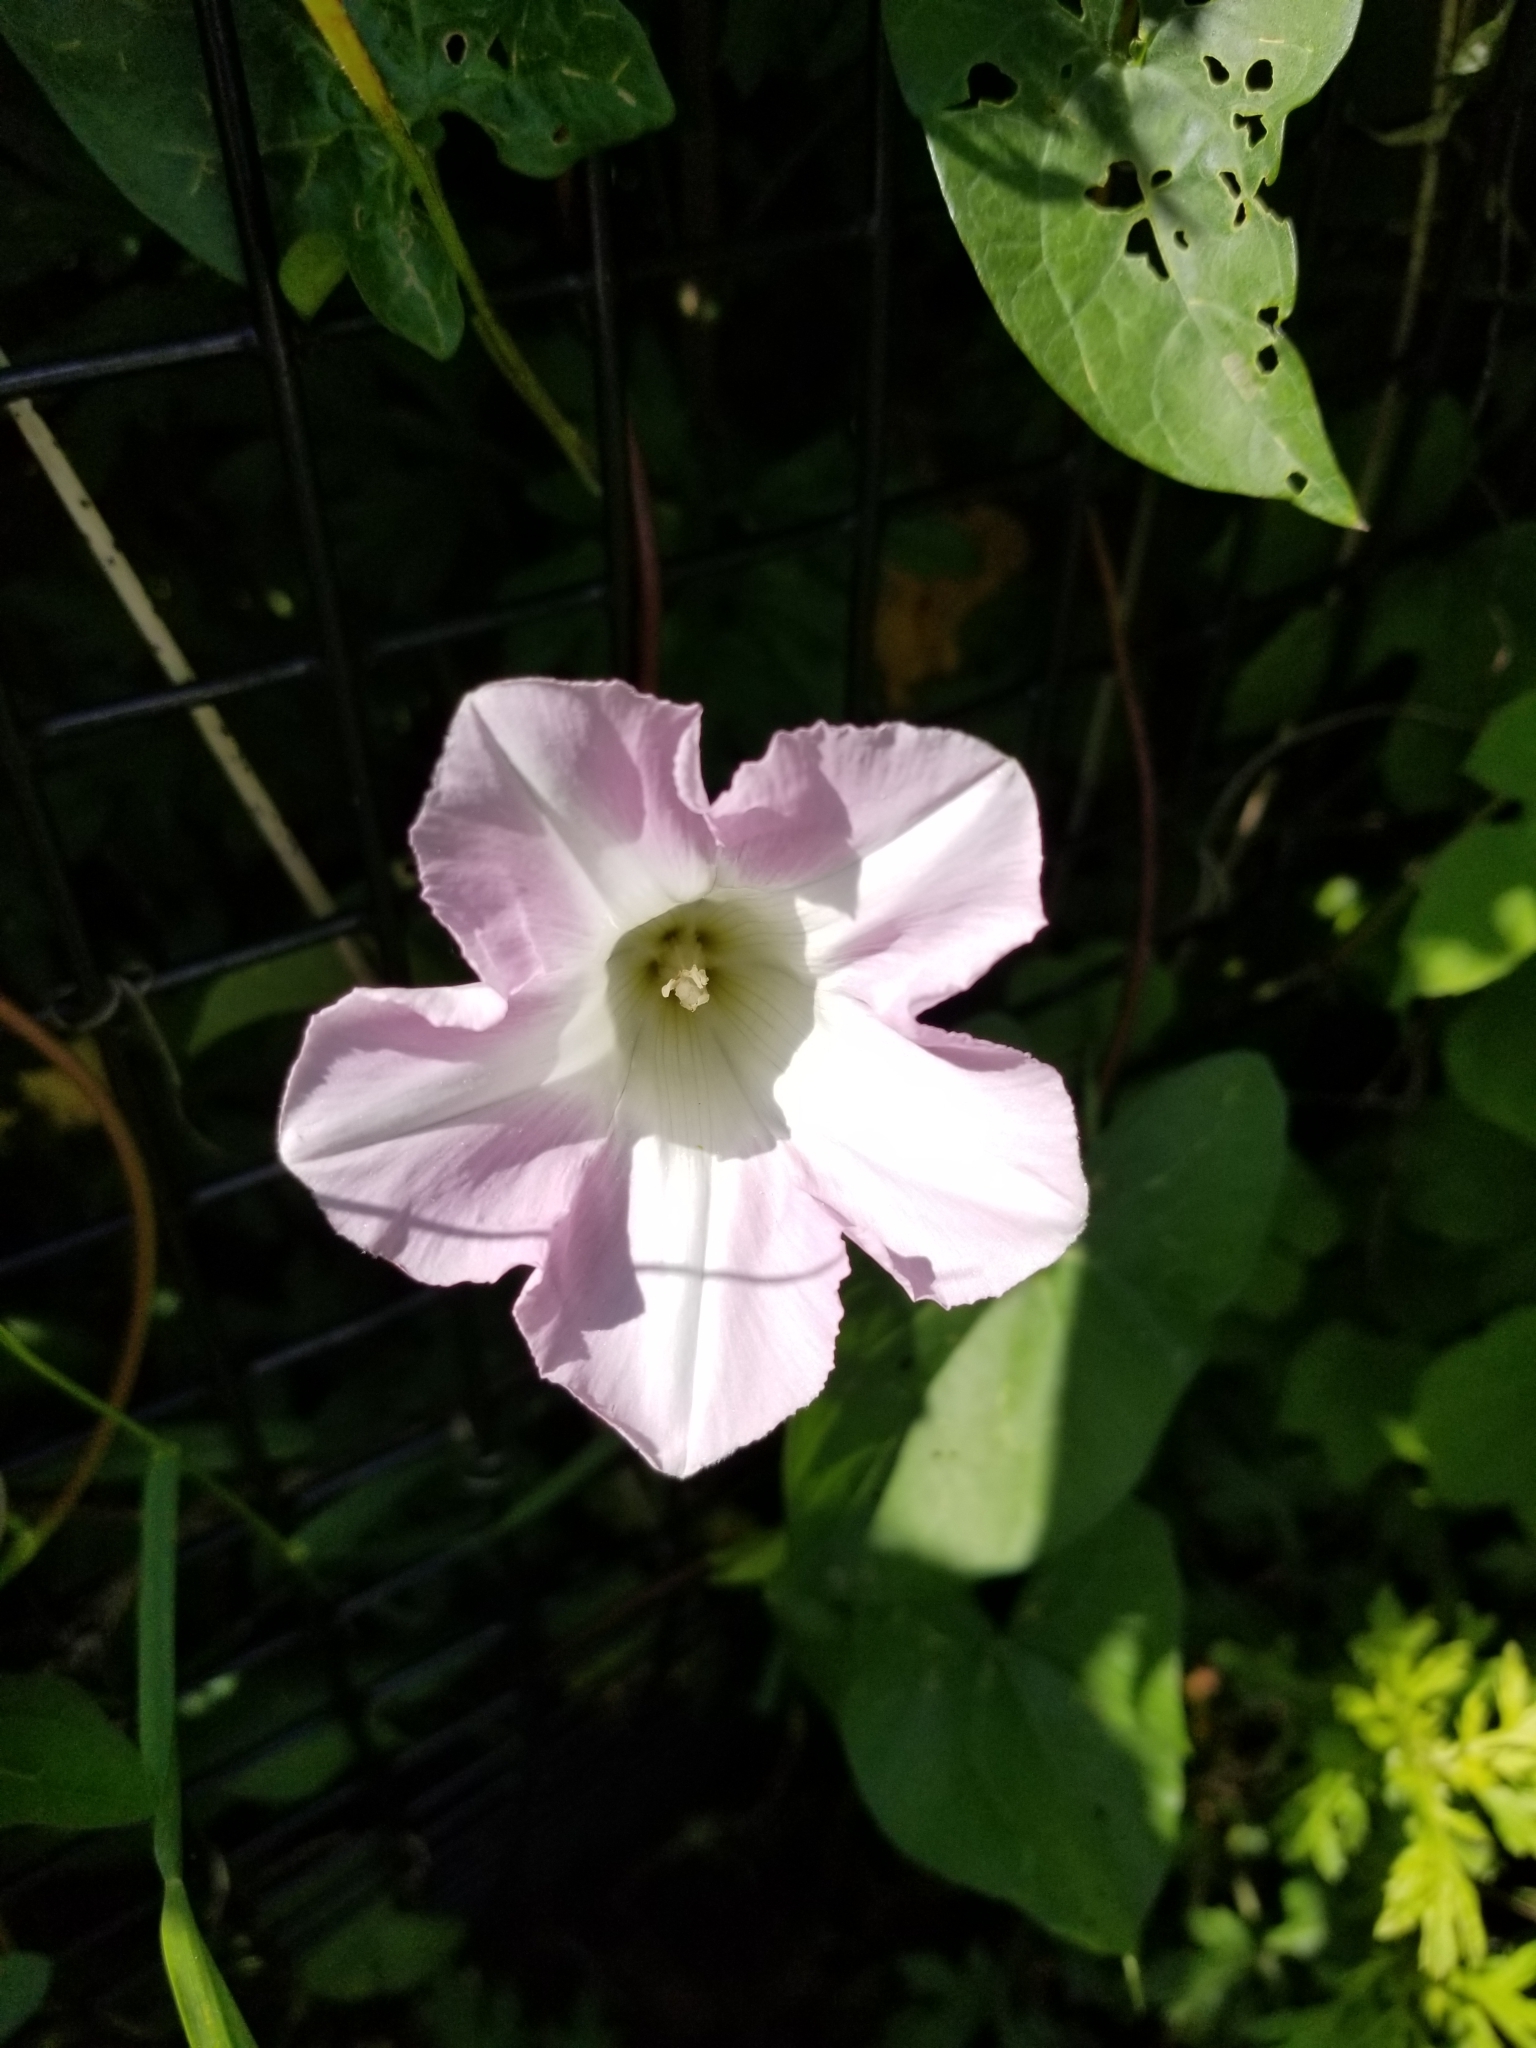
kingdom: Plantae
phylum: Tracheophyta
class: Magnoliopsida
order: Solanales
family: Convolvulaceae
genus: Calystegia
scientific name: Calystegia sepium
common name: Hedge bindweed
